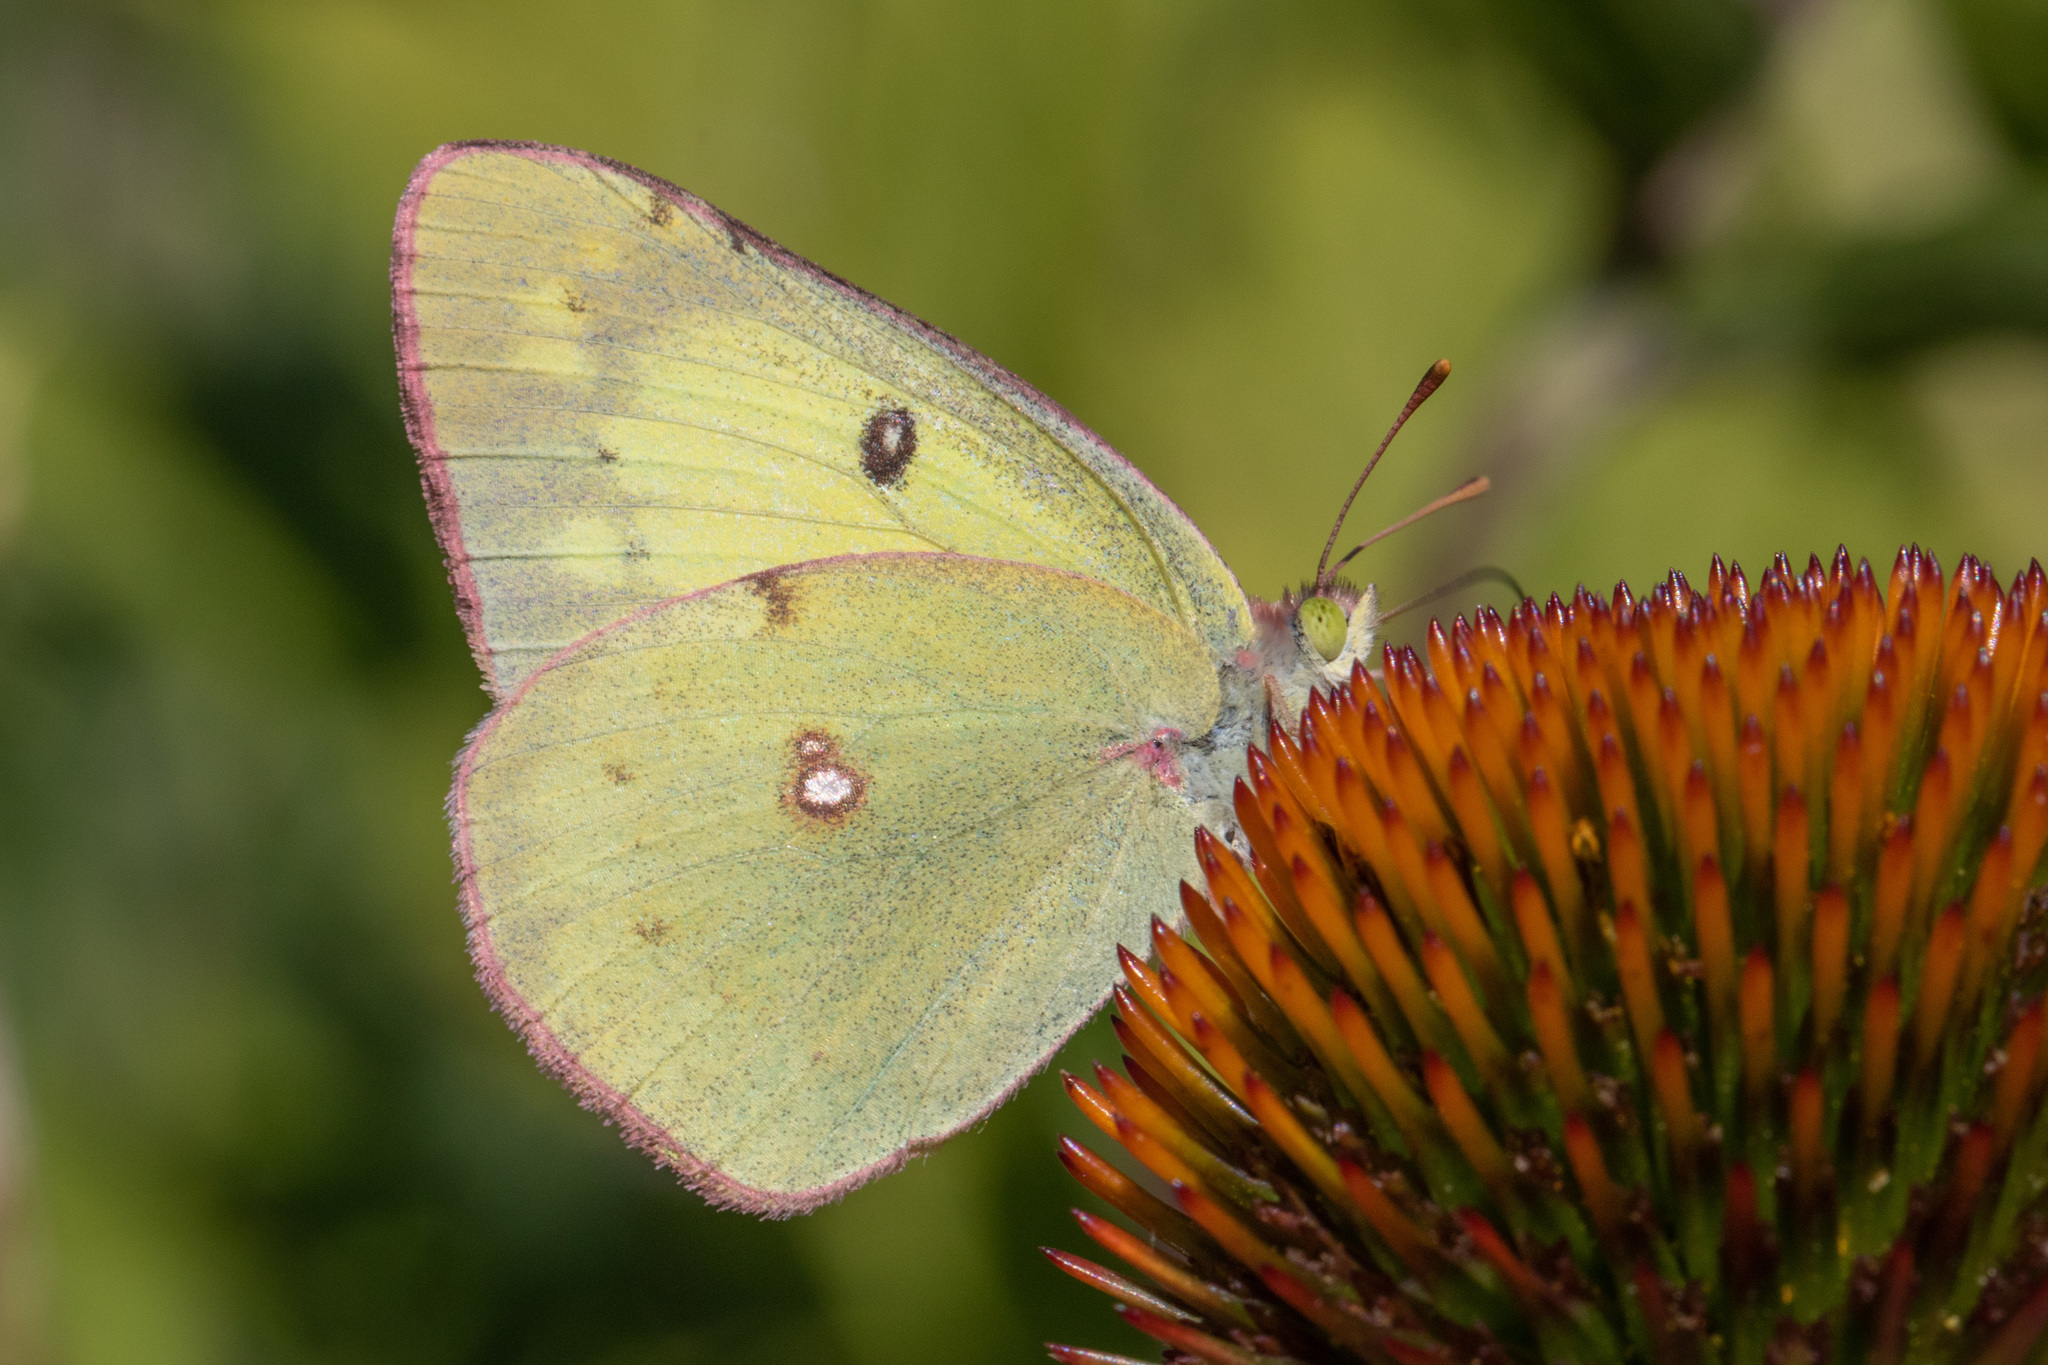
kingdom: Animalia
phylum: Arthropoda
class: Insecta
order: Lepidoptera
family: Pieridae
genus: Colias
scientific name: Colias philodice
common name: Clouded sulphur
